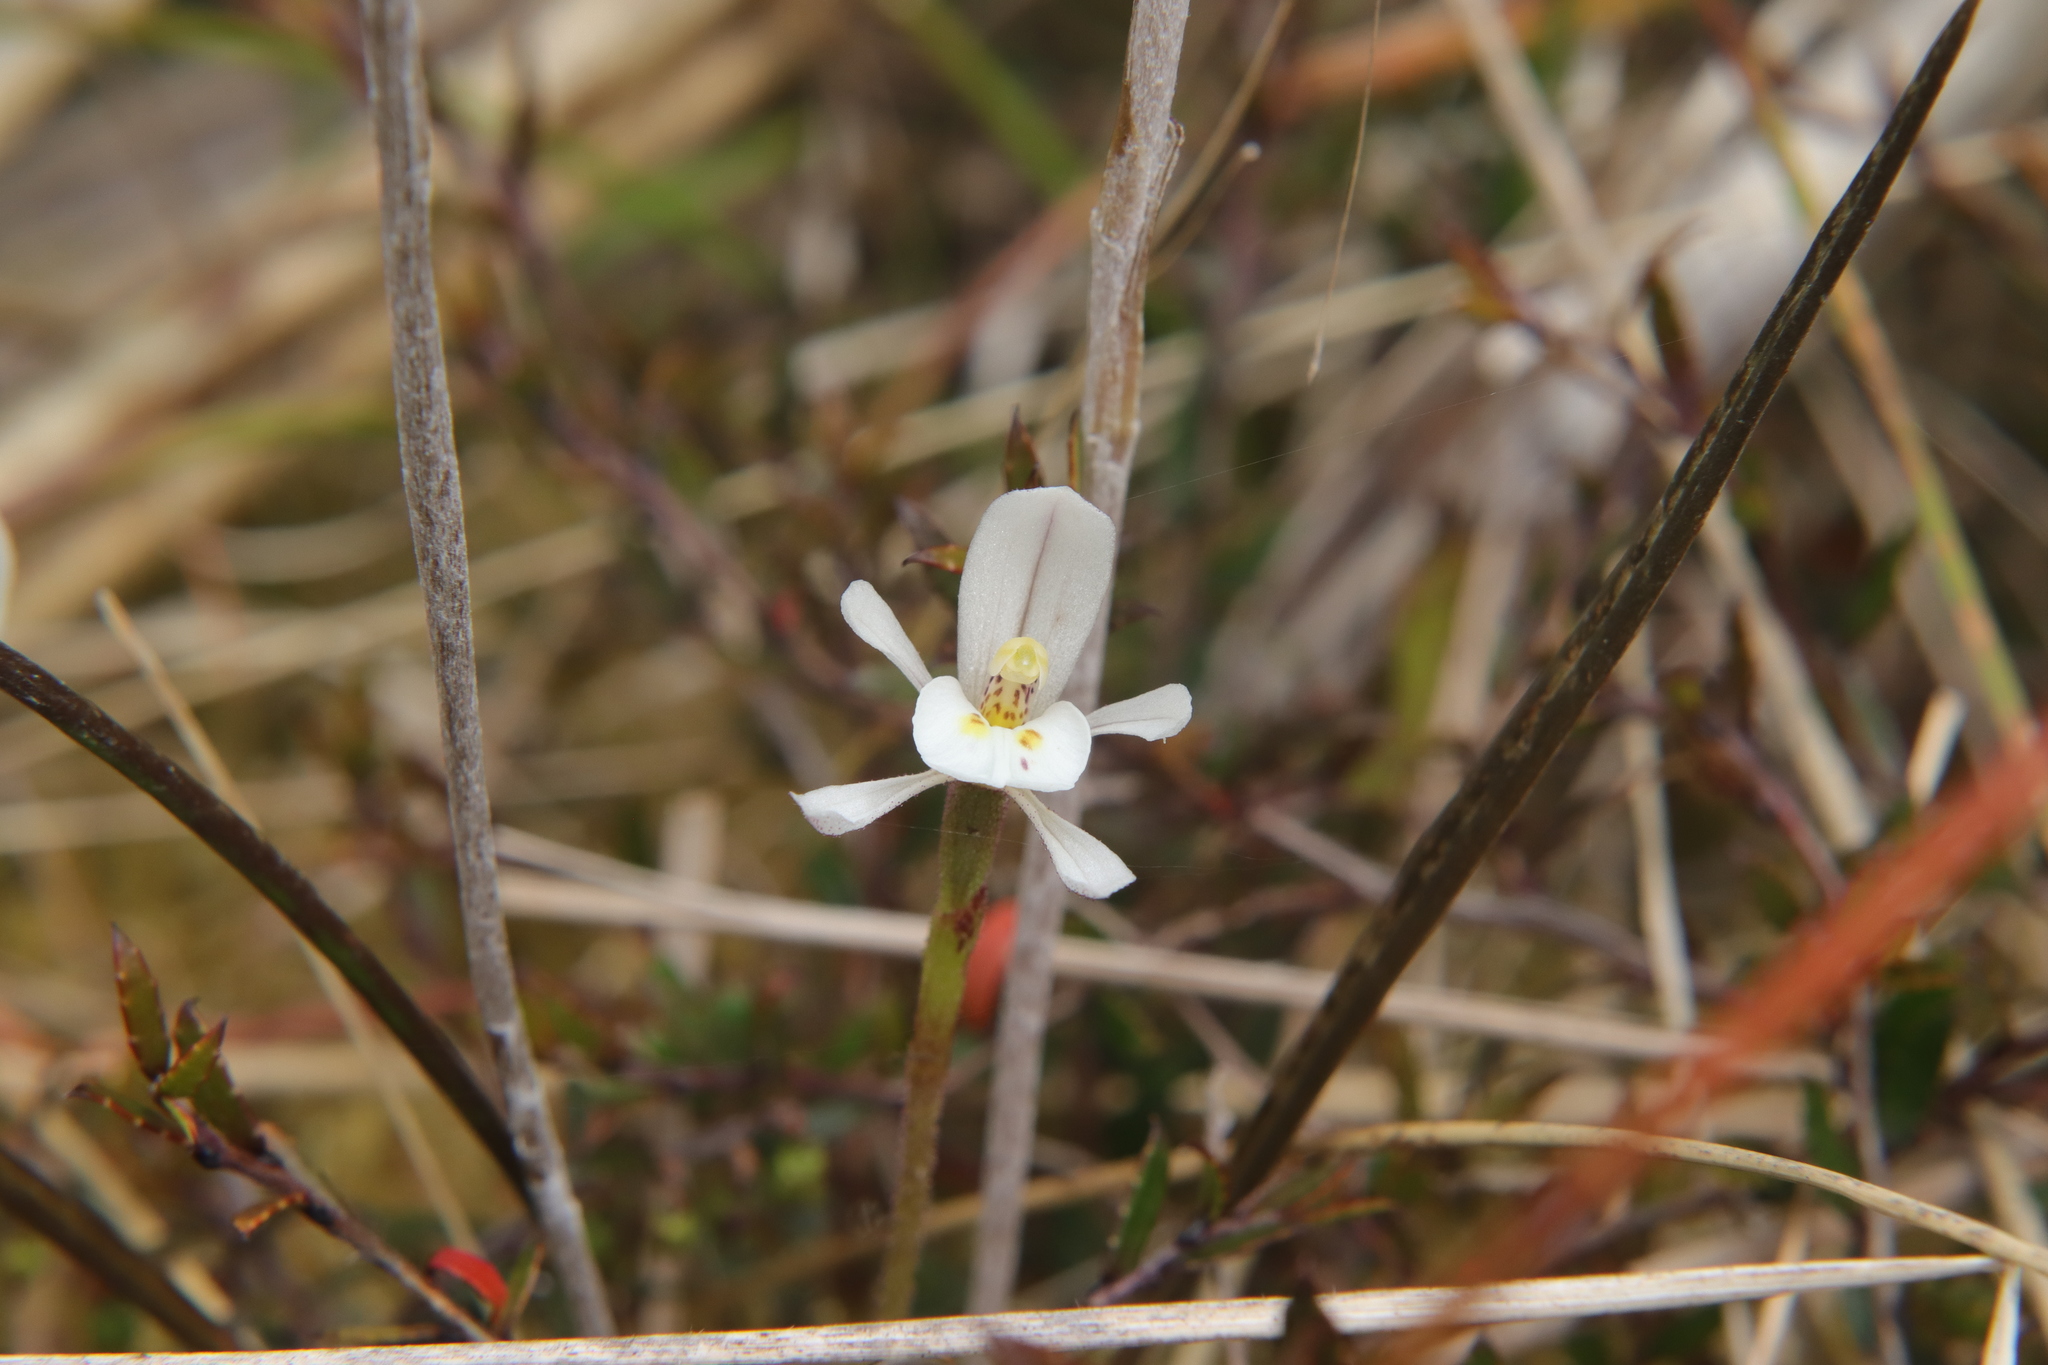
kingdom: Plantae
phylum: Tracheophyta
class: Liliopsida
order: Asparagales
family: Orchidaceae
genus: Aporostylis
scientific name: Aporostylis bifolia
